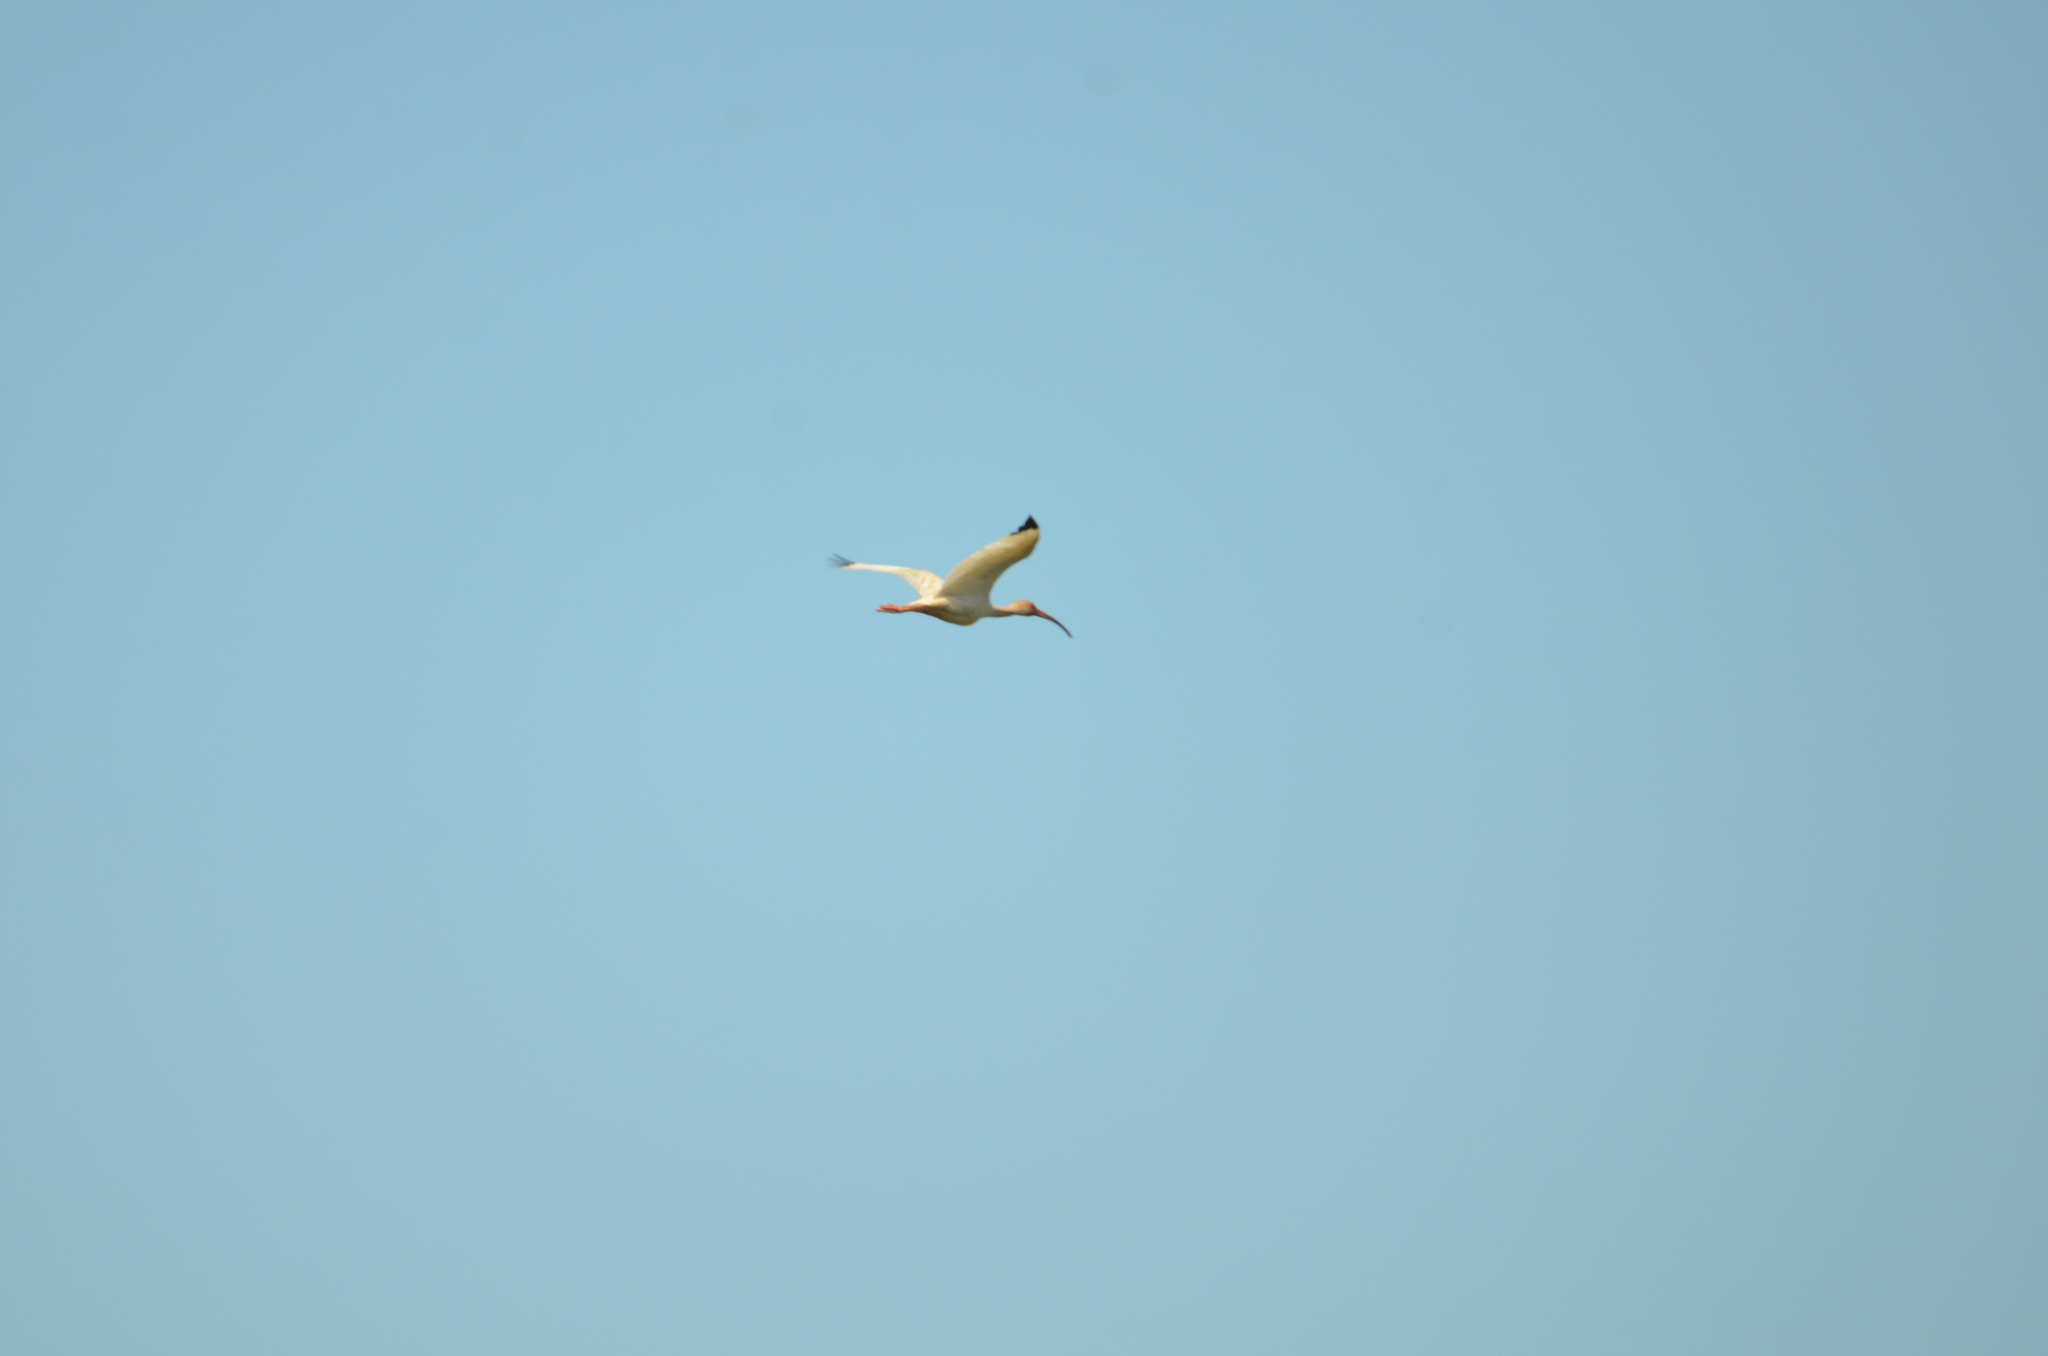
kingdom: Animalia
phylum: Chordata
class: Aves
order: Pelecaniformes
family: Threskiornithidae
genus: Eudocimus
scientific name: Eudocimus albus
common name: White ibis
